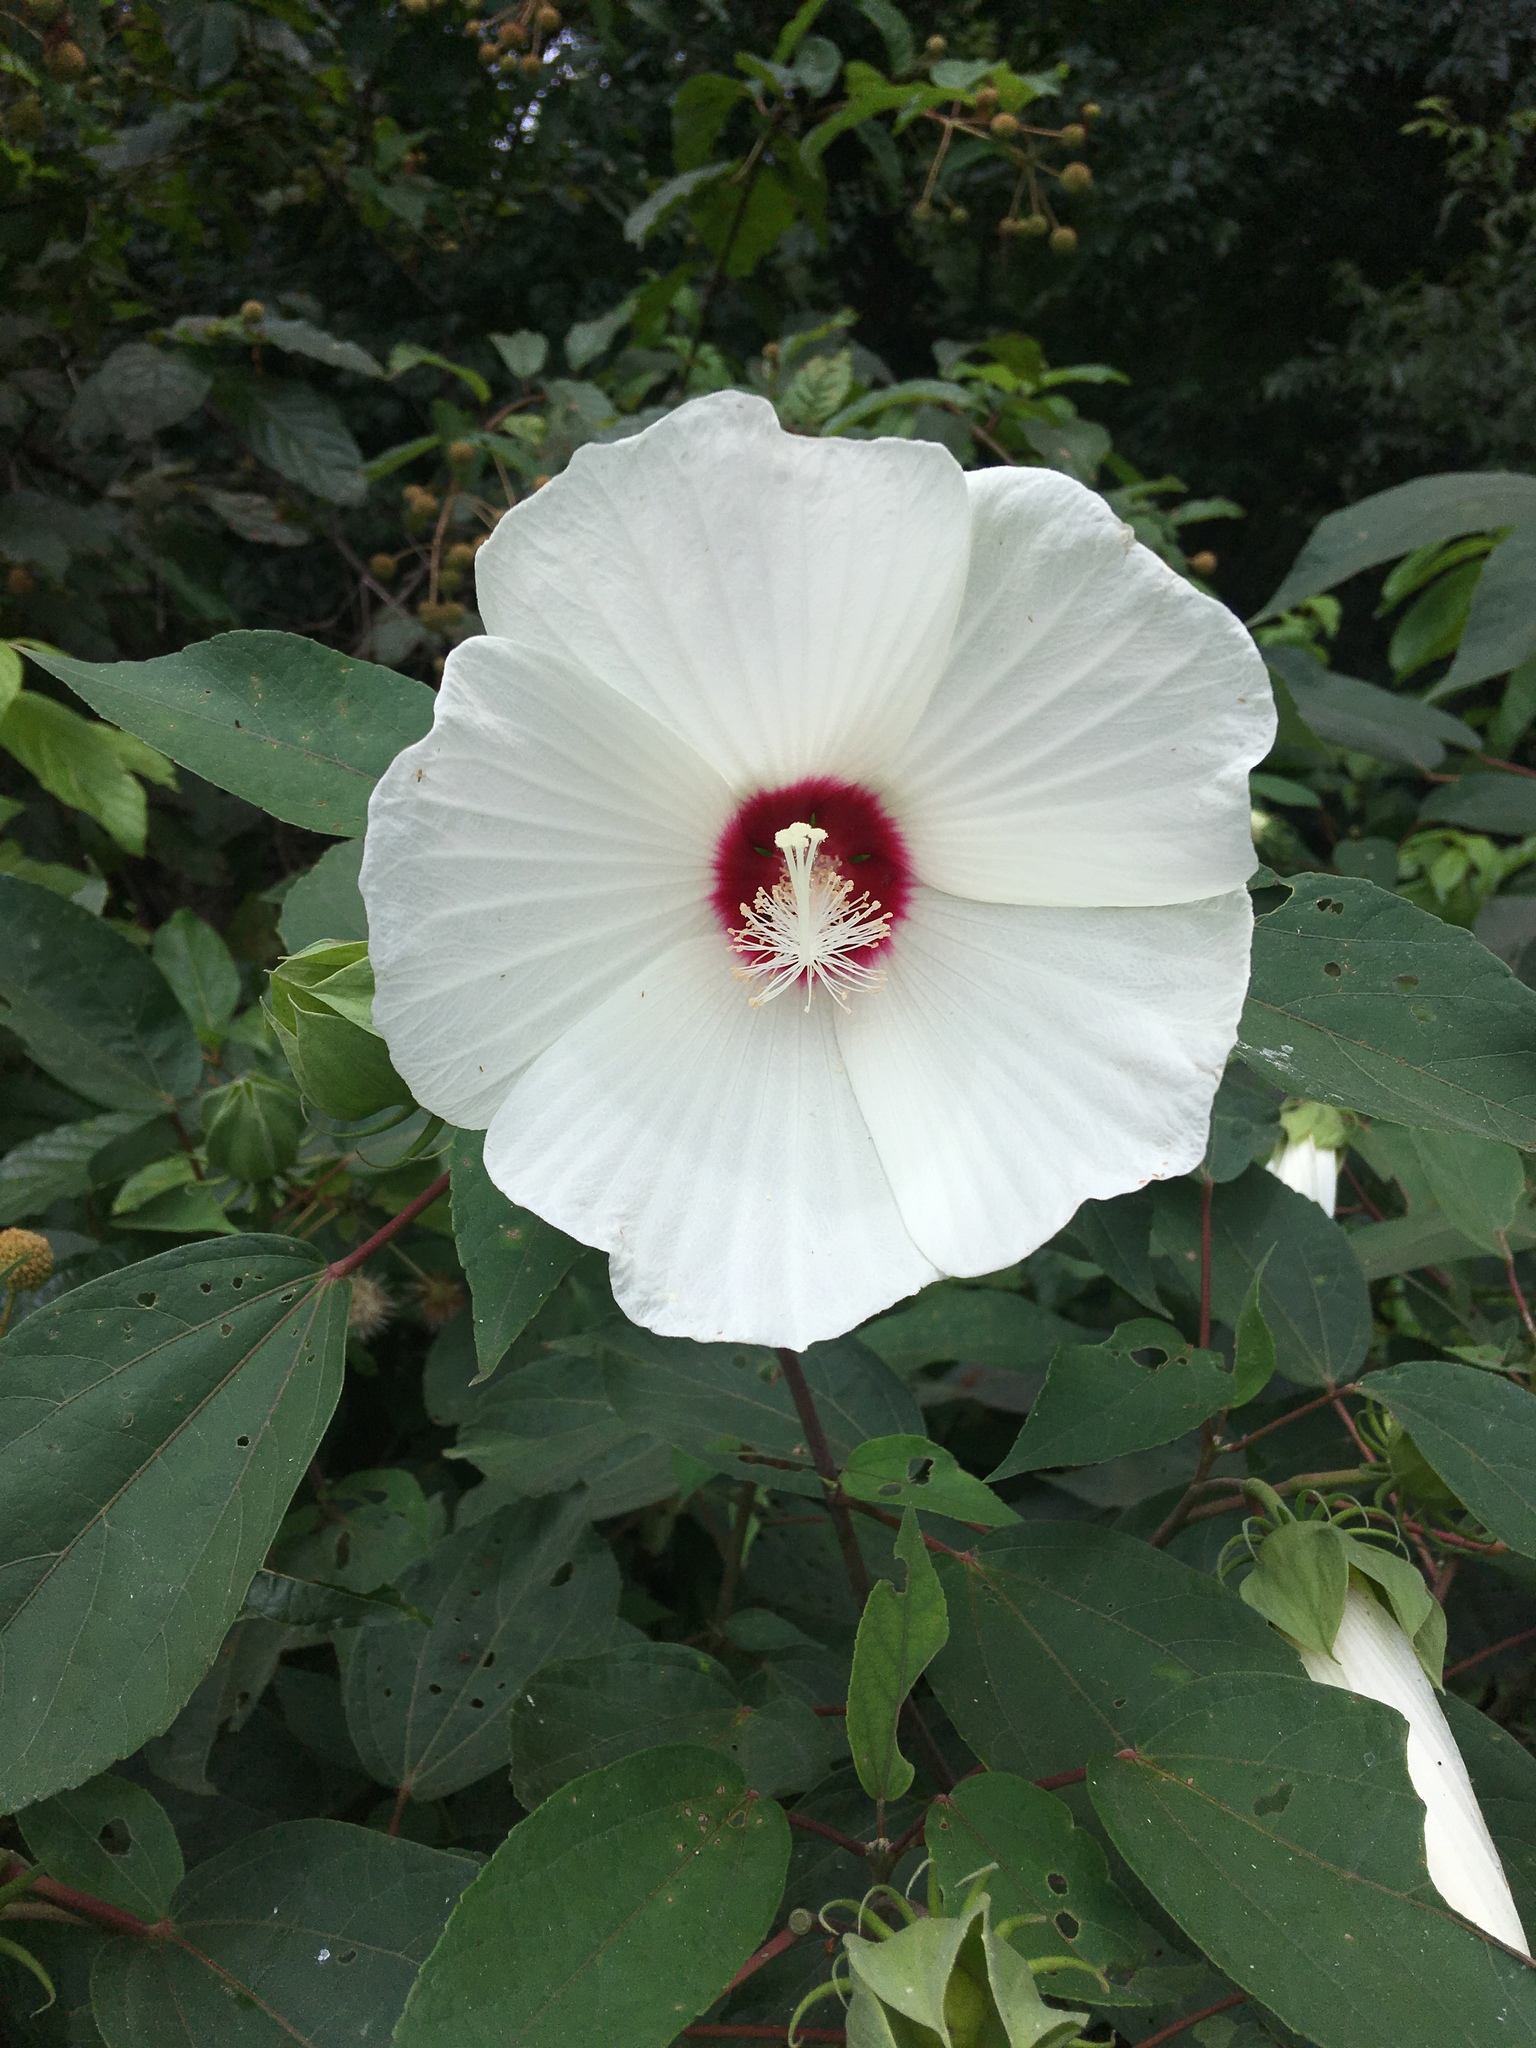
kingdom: Plantae
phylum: Tracheophyta
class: Magnoliopsida
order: Malvales
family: Malvaceae
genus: Hibiscus
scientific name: Hibiscus moscheutos
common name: Common rose-mallow
